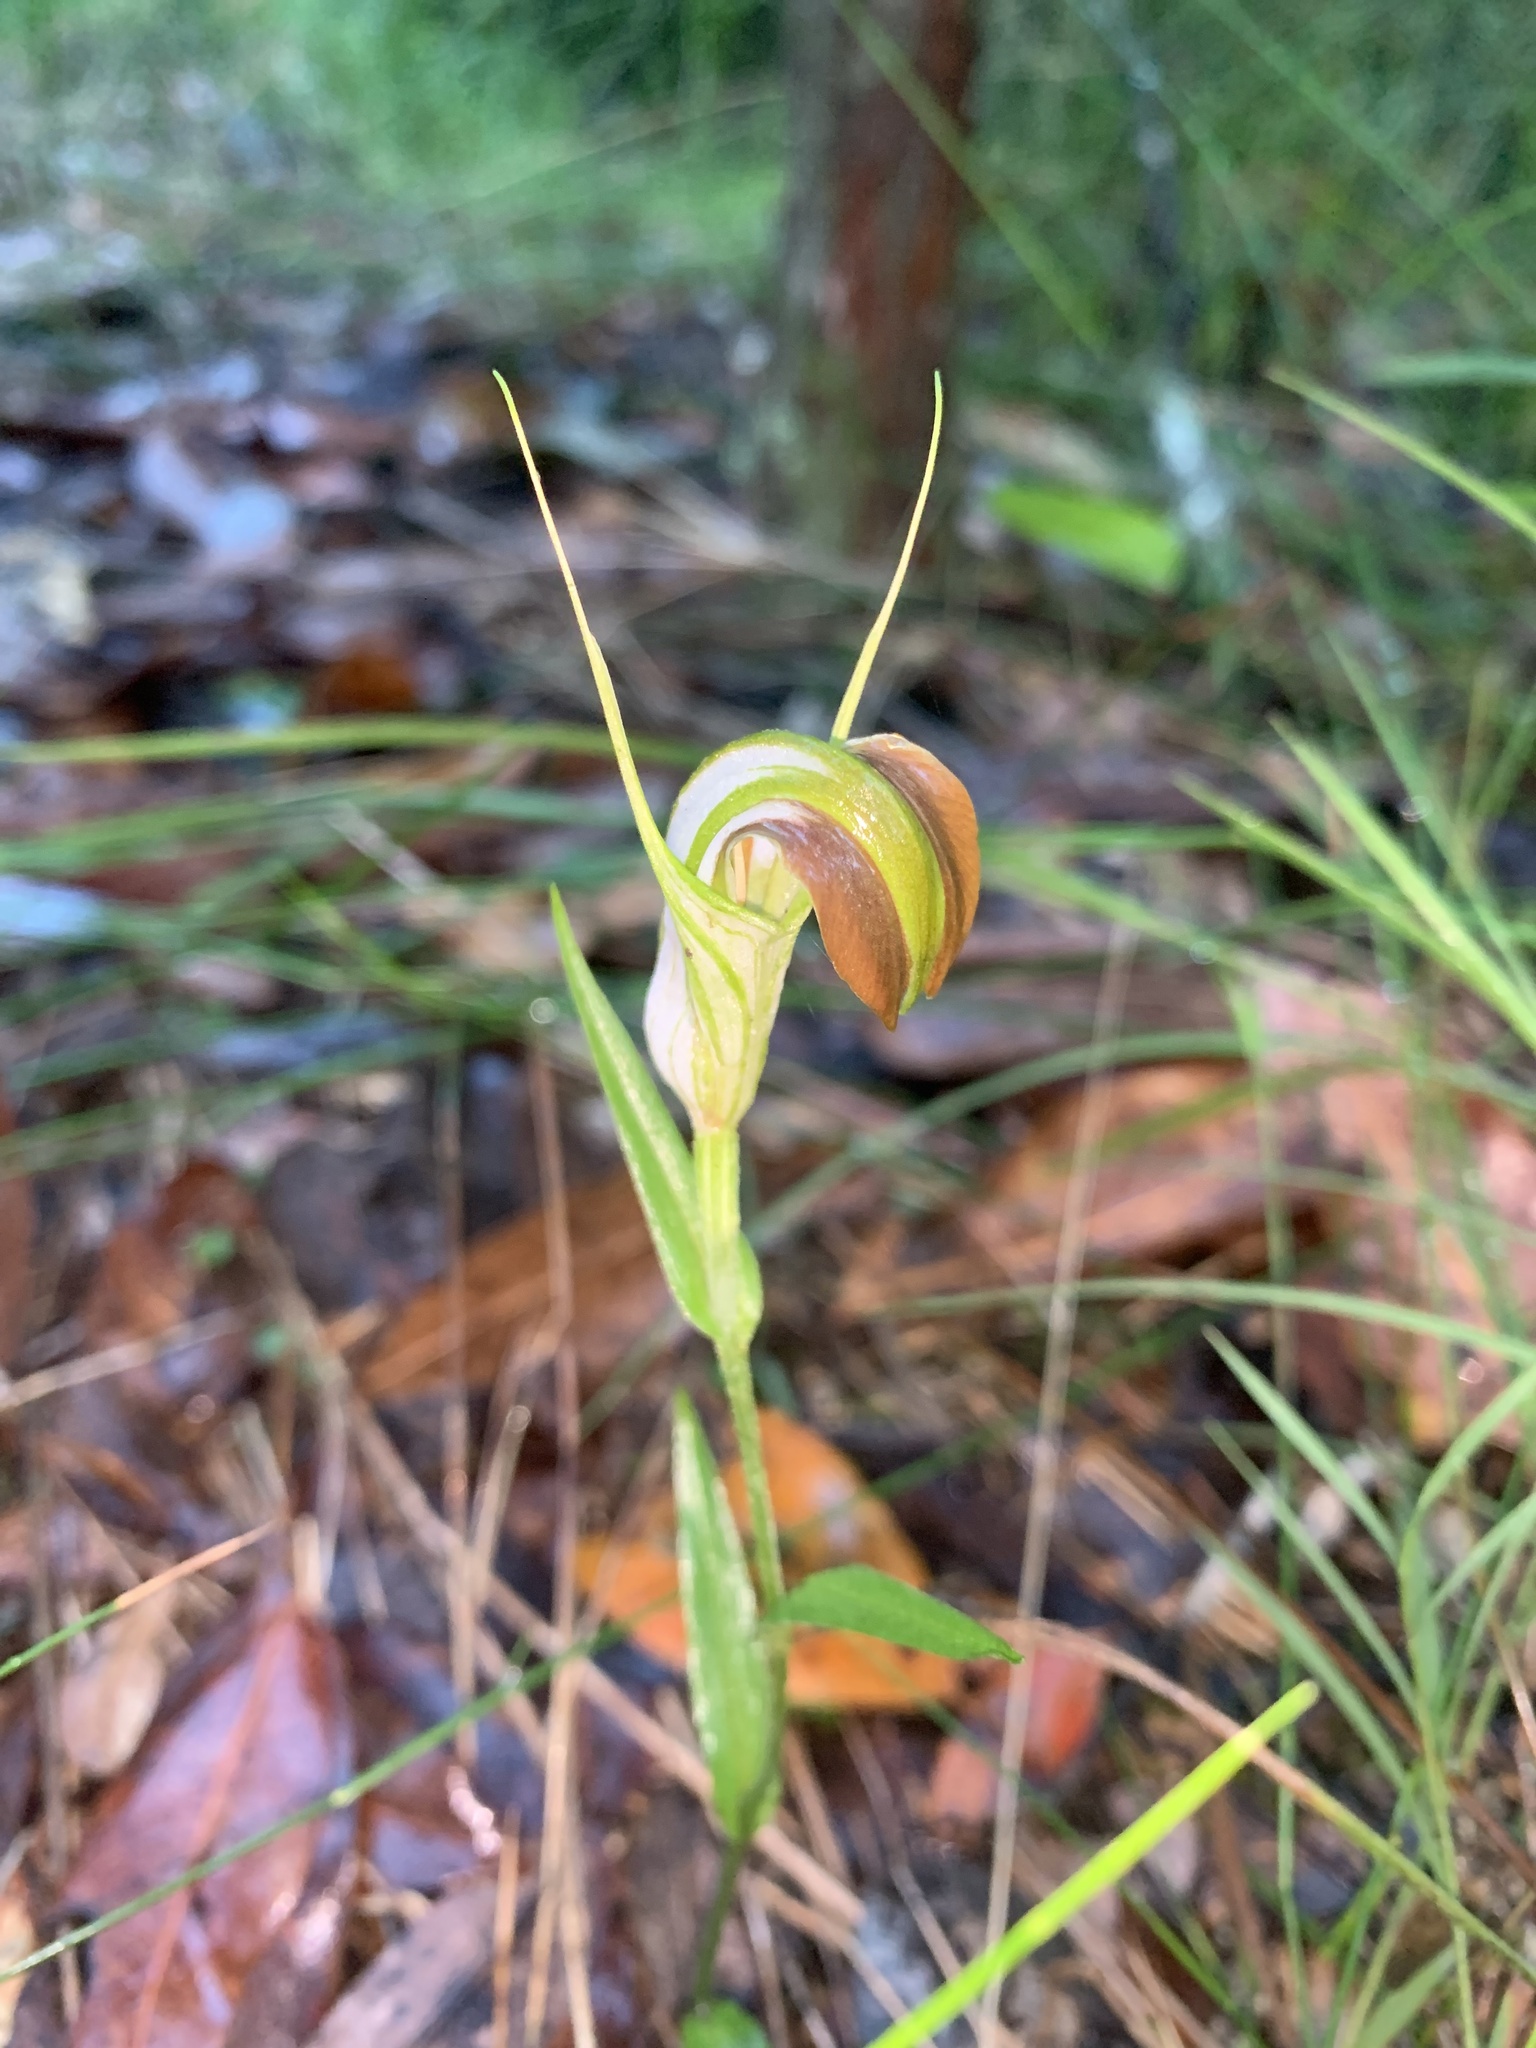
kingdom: Plantae
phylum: Tracheophyta
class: Liliopsida
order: Asparagales
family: Orchidaceae
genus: Pterostylis
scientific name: Pterostylis grandiflora
